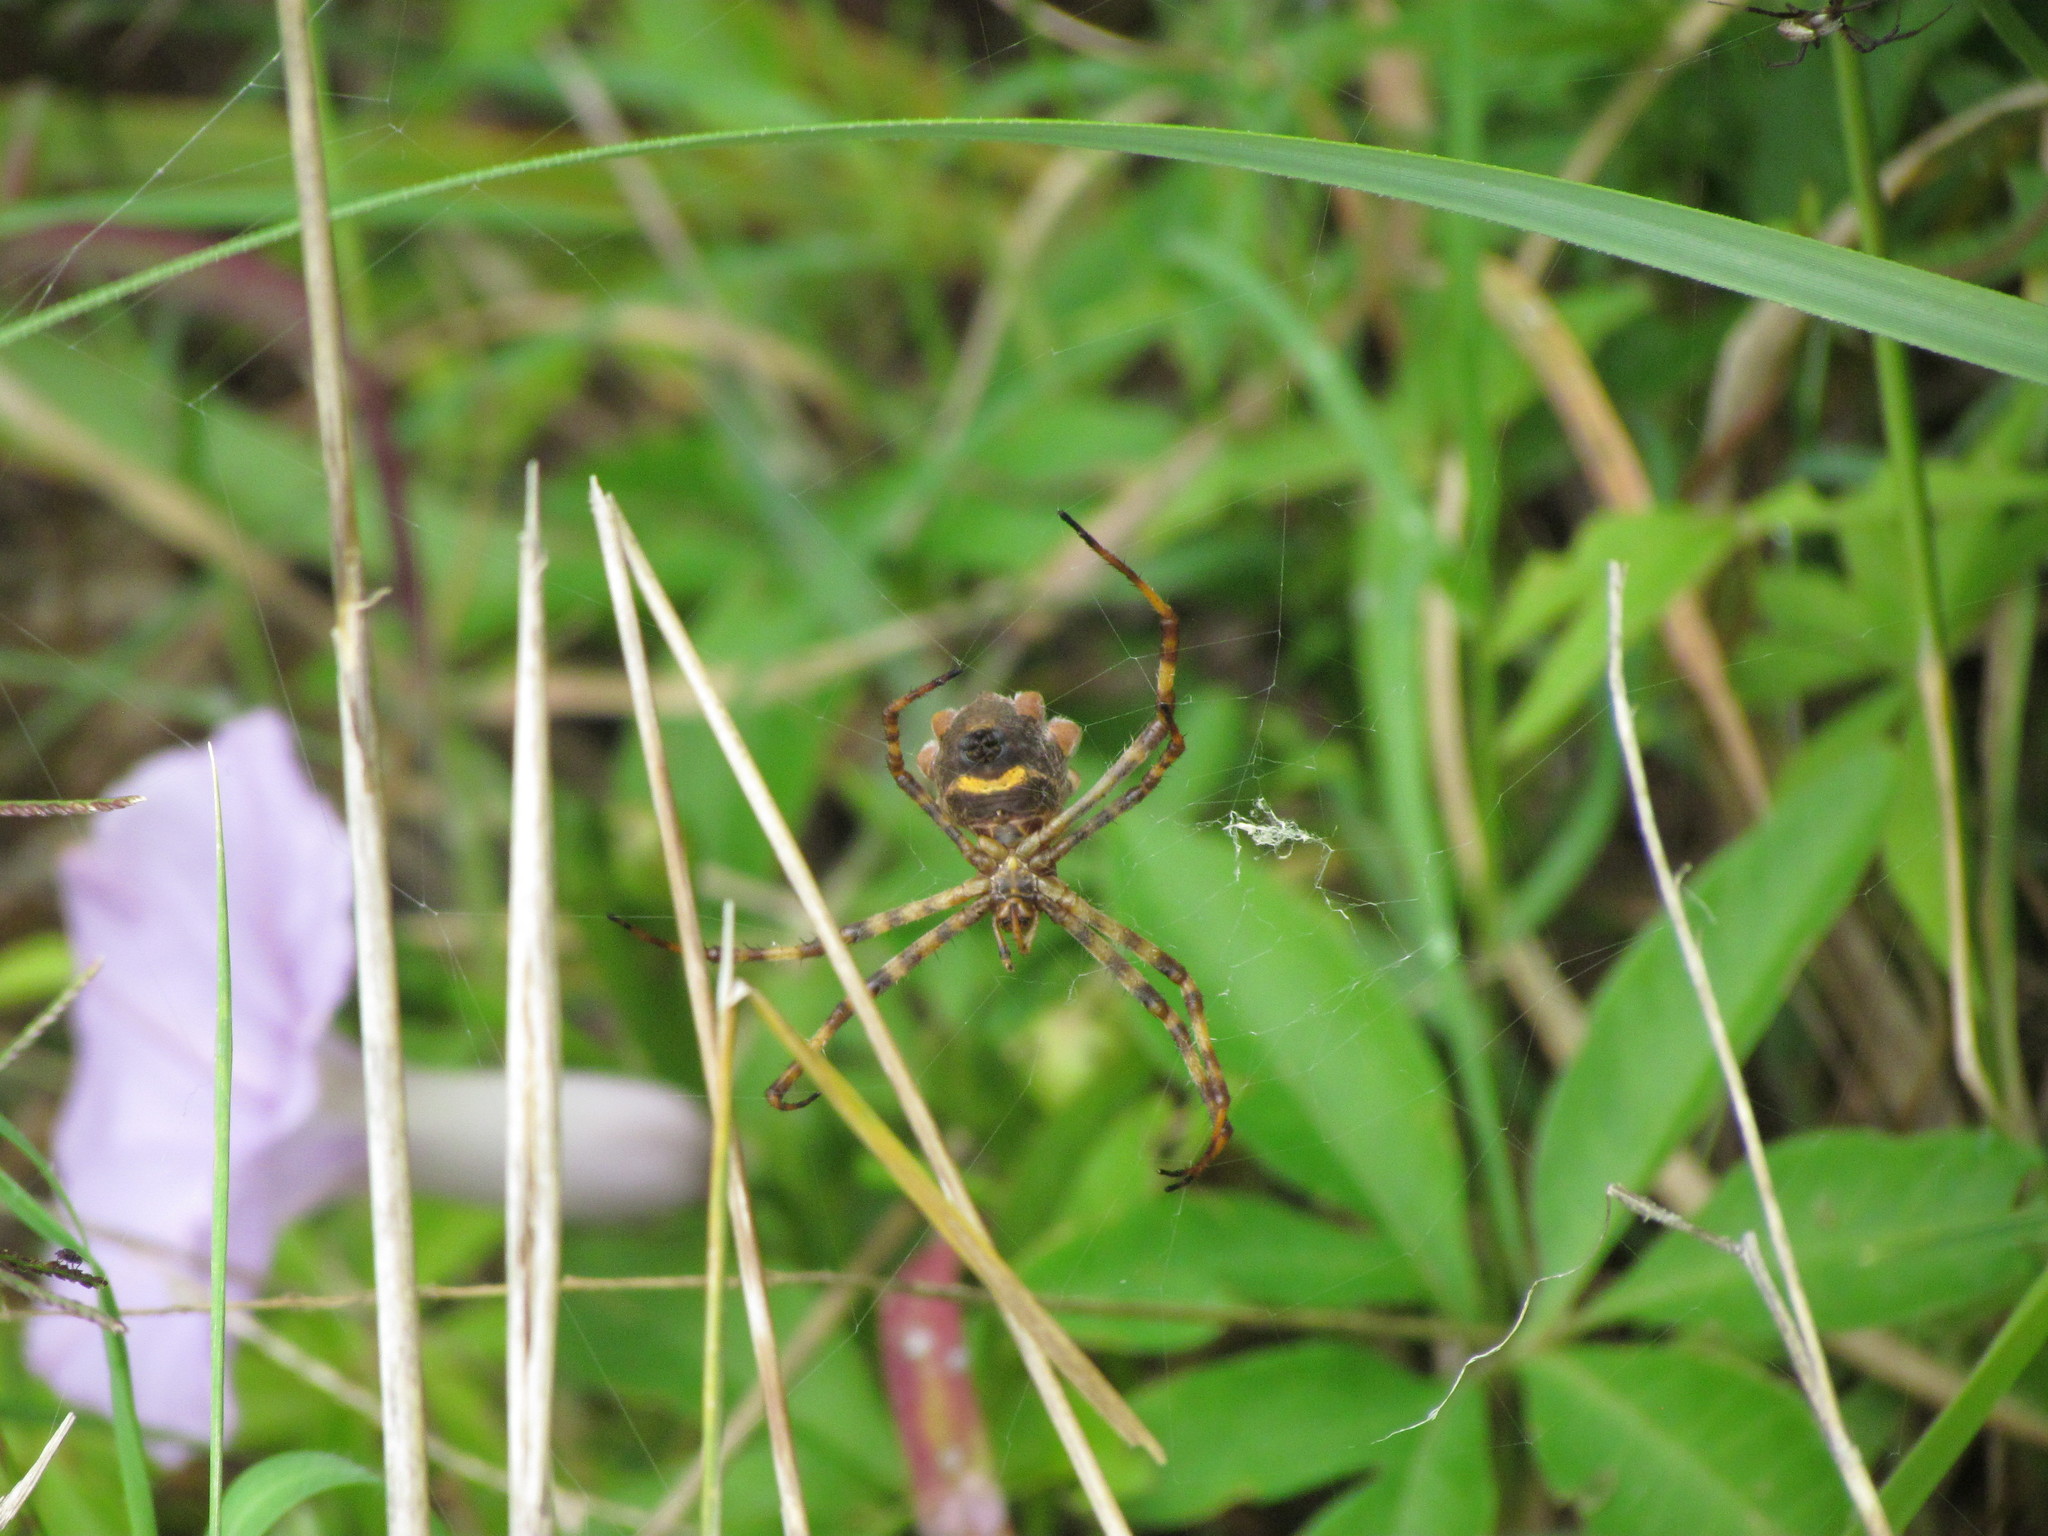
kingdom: Animalia
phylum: Arthropoda
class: Arachnida
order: Araneae
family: Araneidae
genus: Argiope
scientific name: Argiope argentata
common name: Orb weavers
